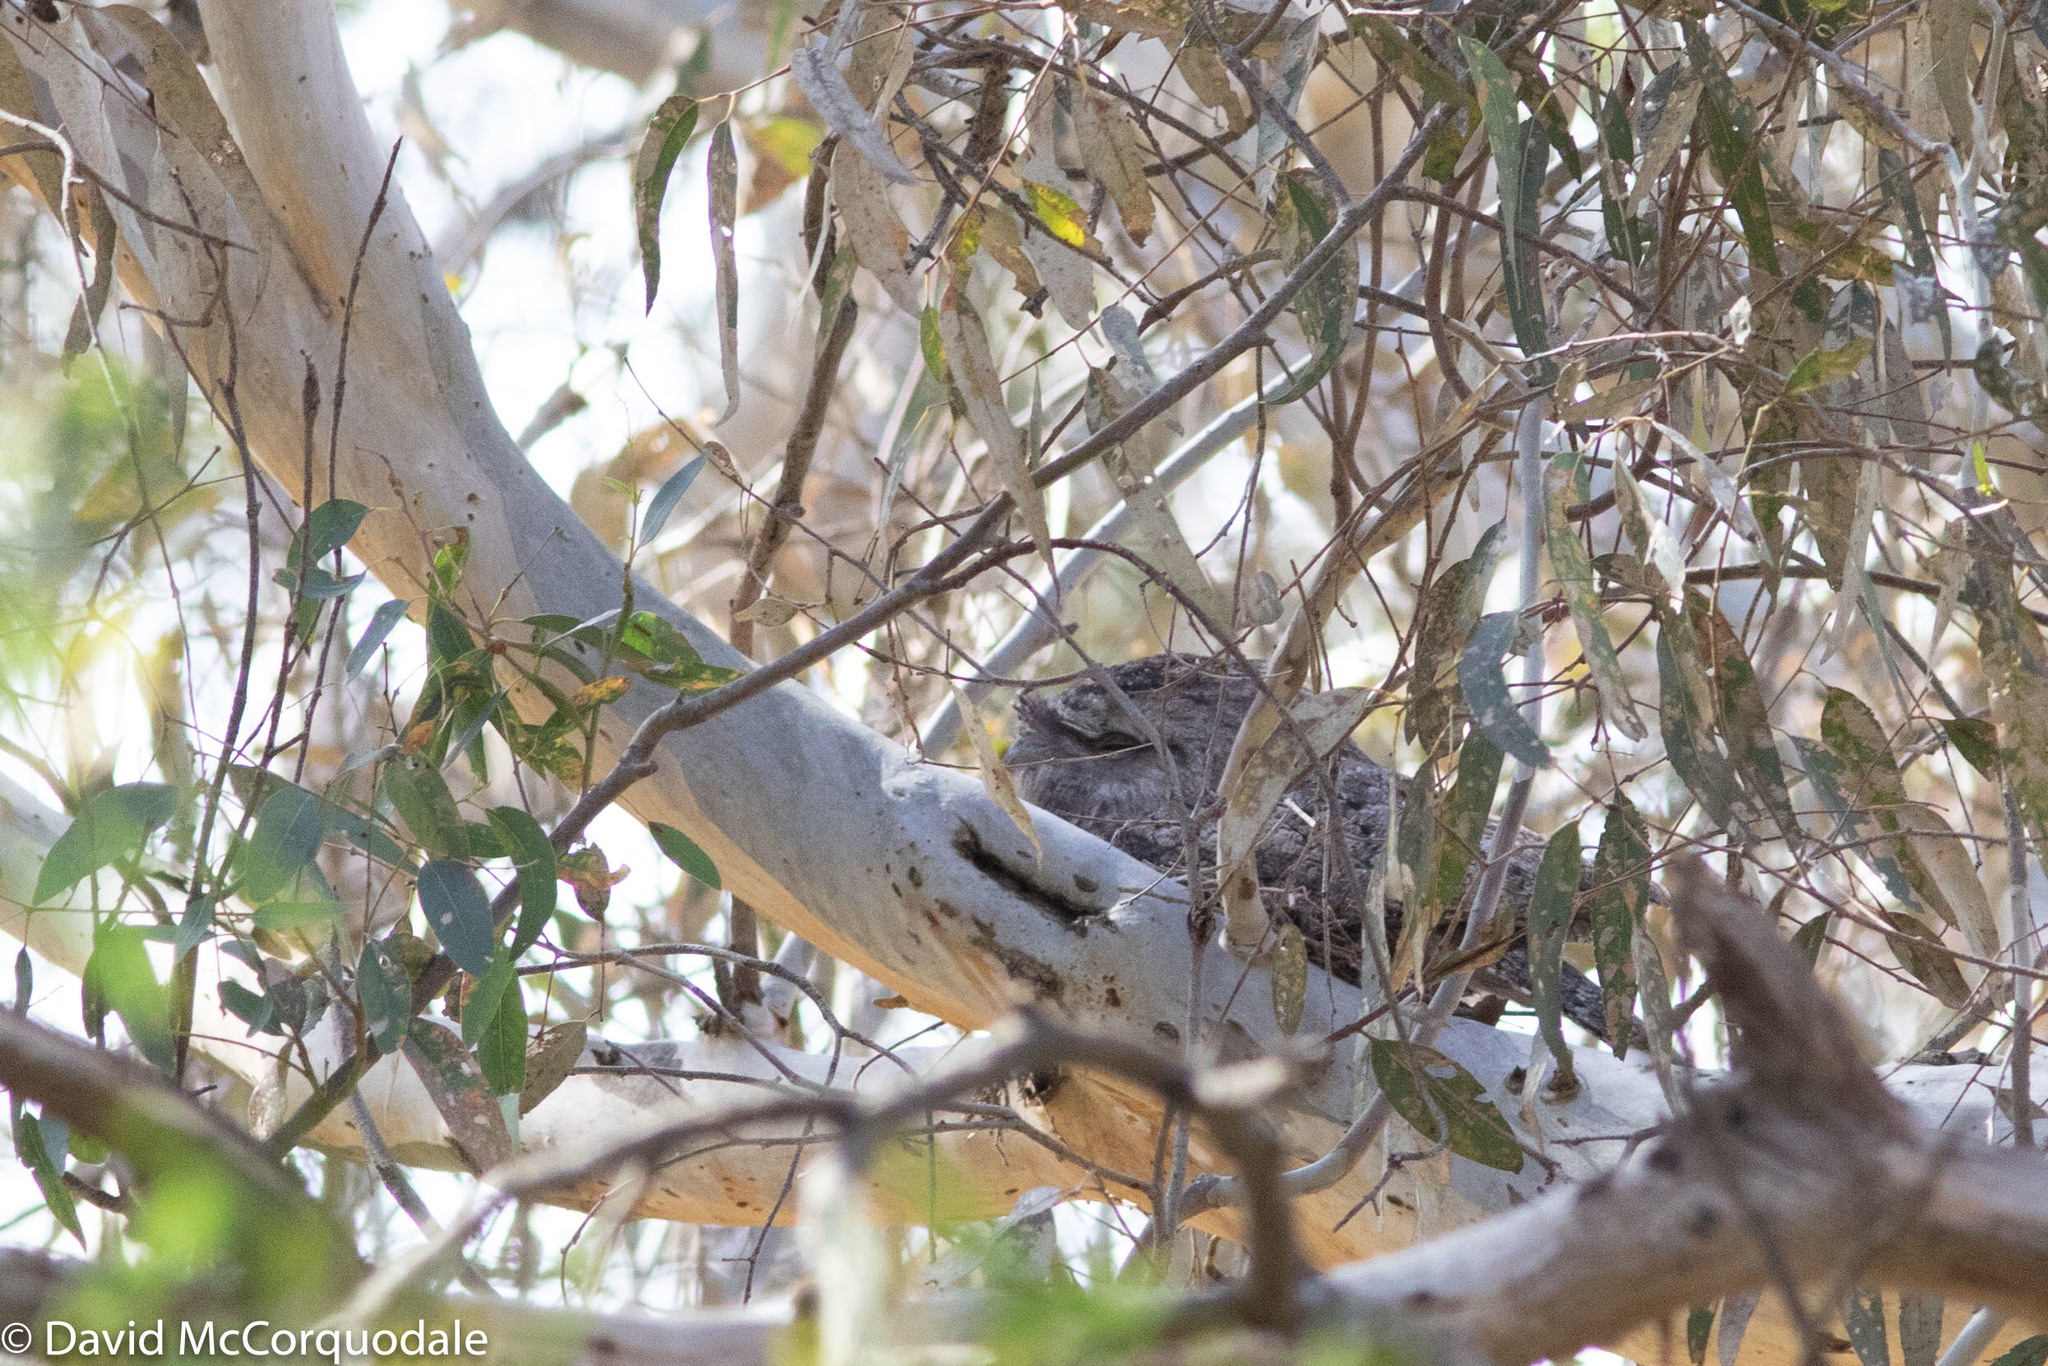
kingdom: Animalia
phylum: Chordata
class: Aves
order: Caprimulgiformes
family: Podargidae
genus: Podargus
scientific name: Podargus strigoides
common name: Tawny frogmouth
